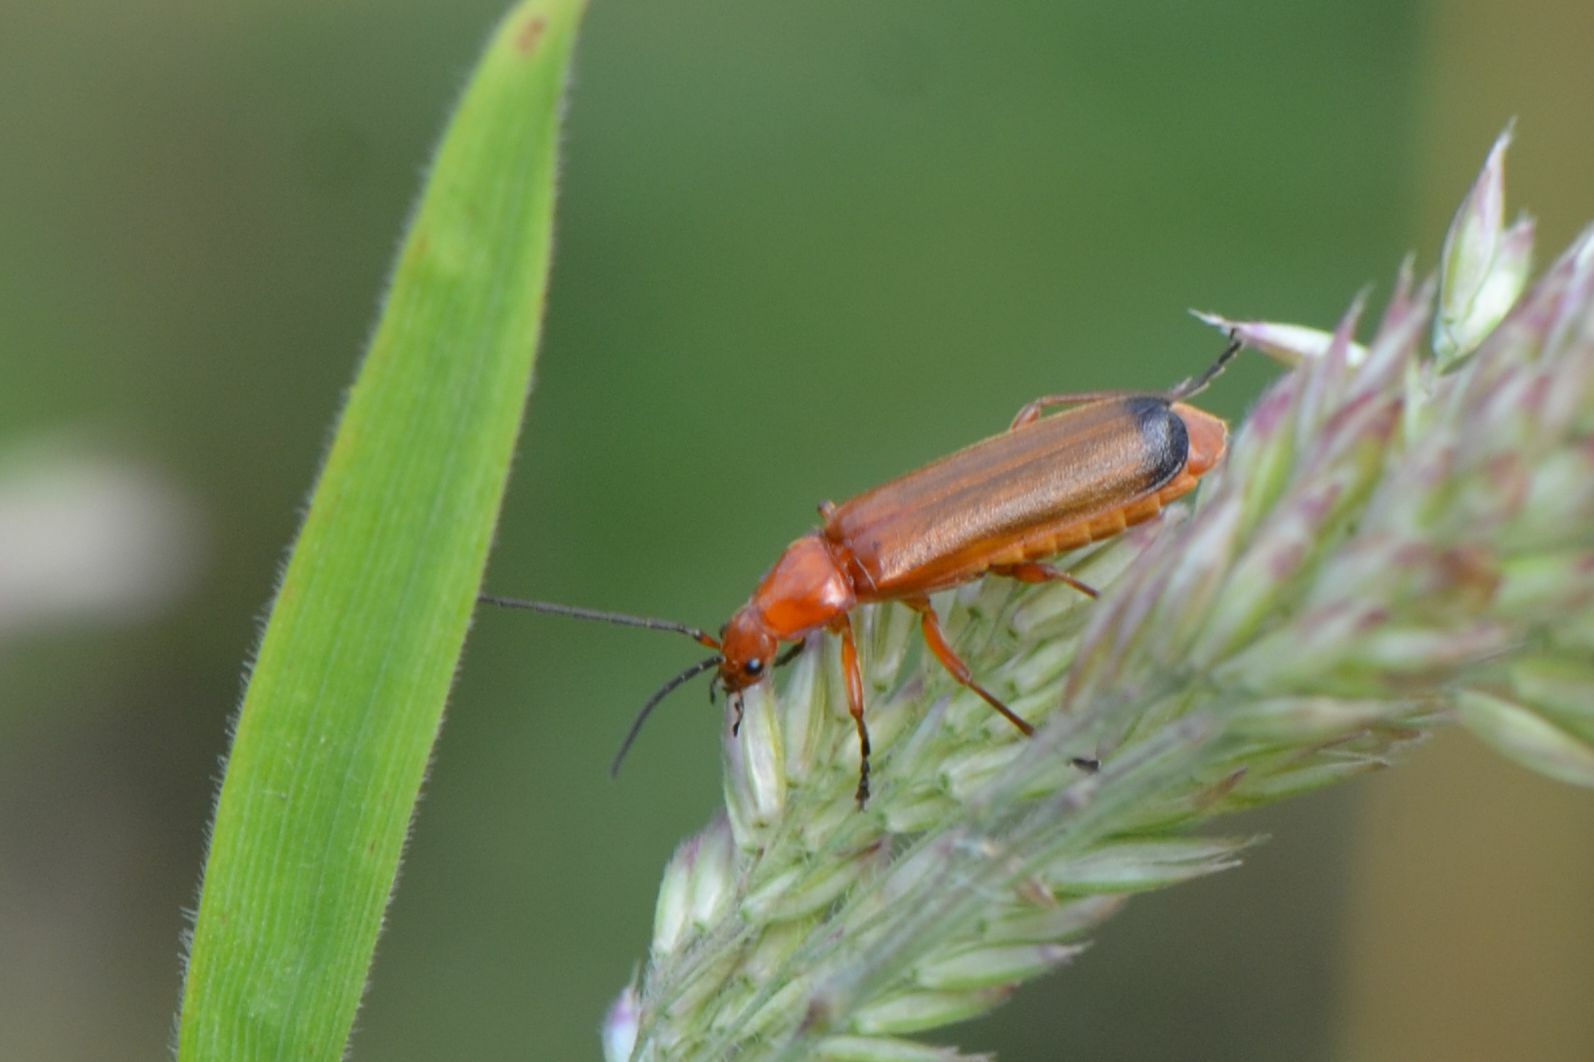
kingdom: Animalia
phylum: Arthropoda
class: Insecta
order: Coleoptera
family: Cantharidae
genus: Rhagonycha
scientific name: Rhagonycha fulva
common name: Common red soldier beetle
